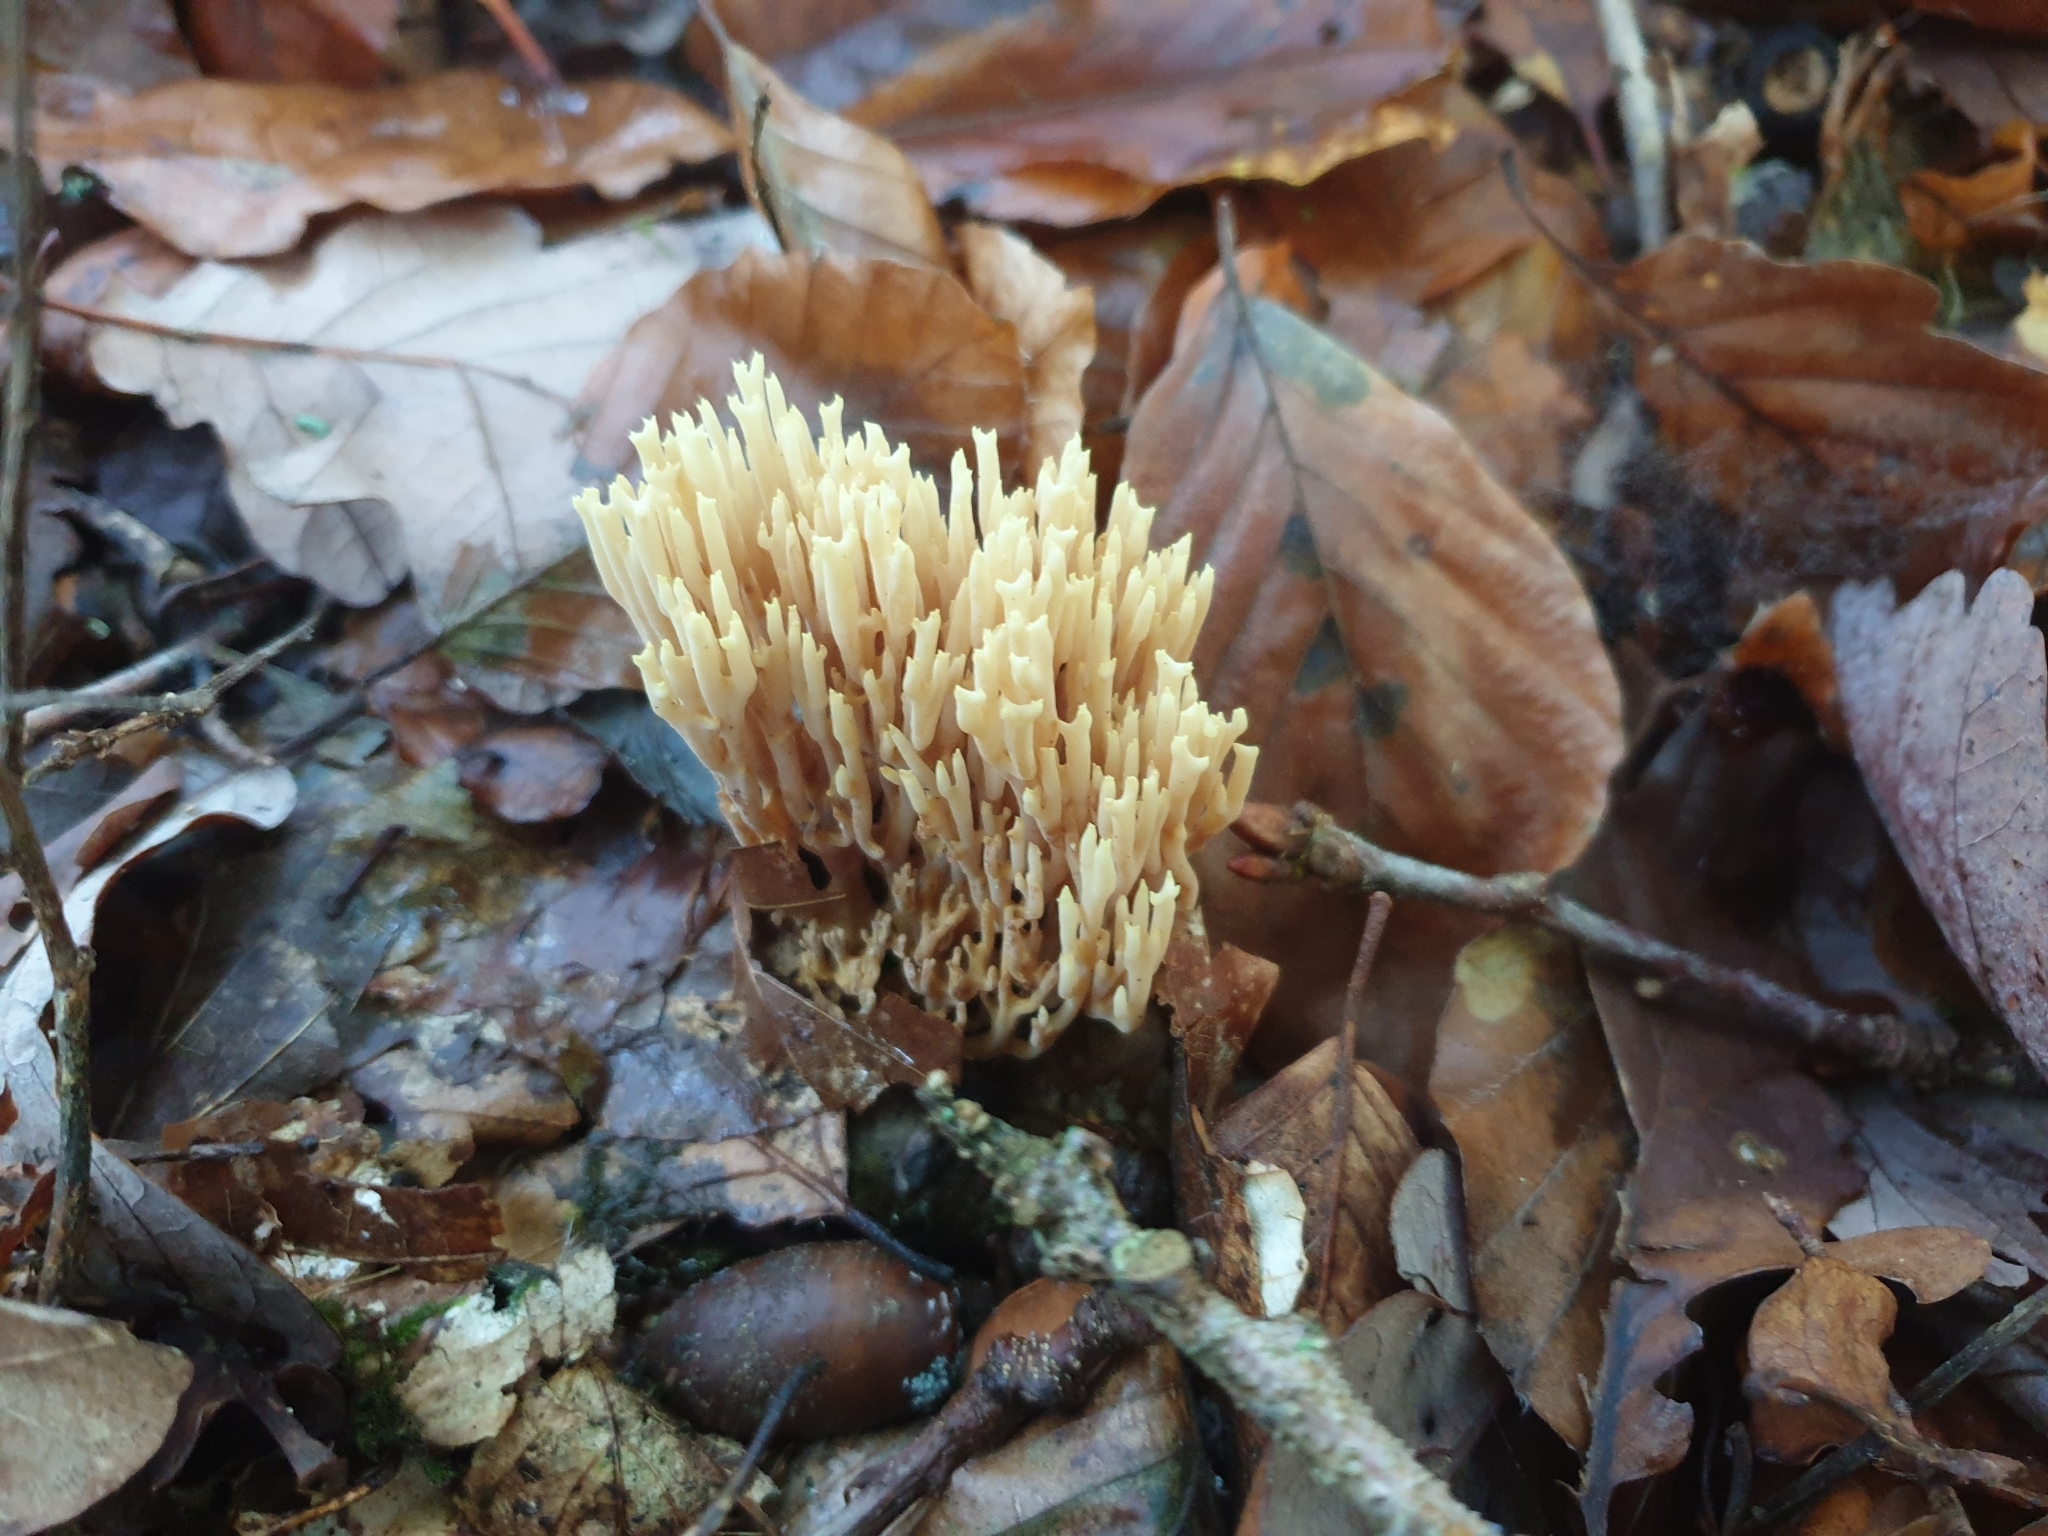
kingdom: Fungi
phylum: Basidiomycota
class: Agaricomycetes
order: Gomphales
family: Gomphaceae
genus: Ramaria
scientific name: Ramaria stricta
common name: Upright coral
